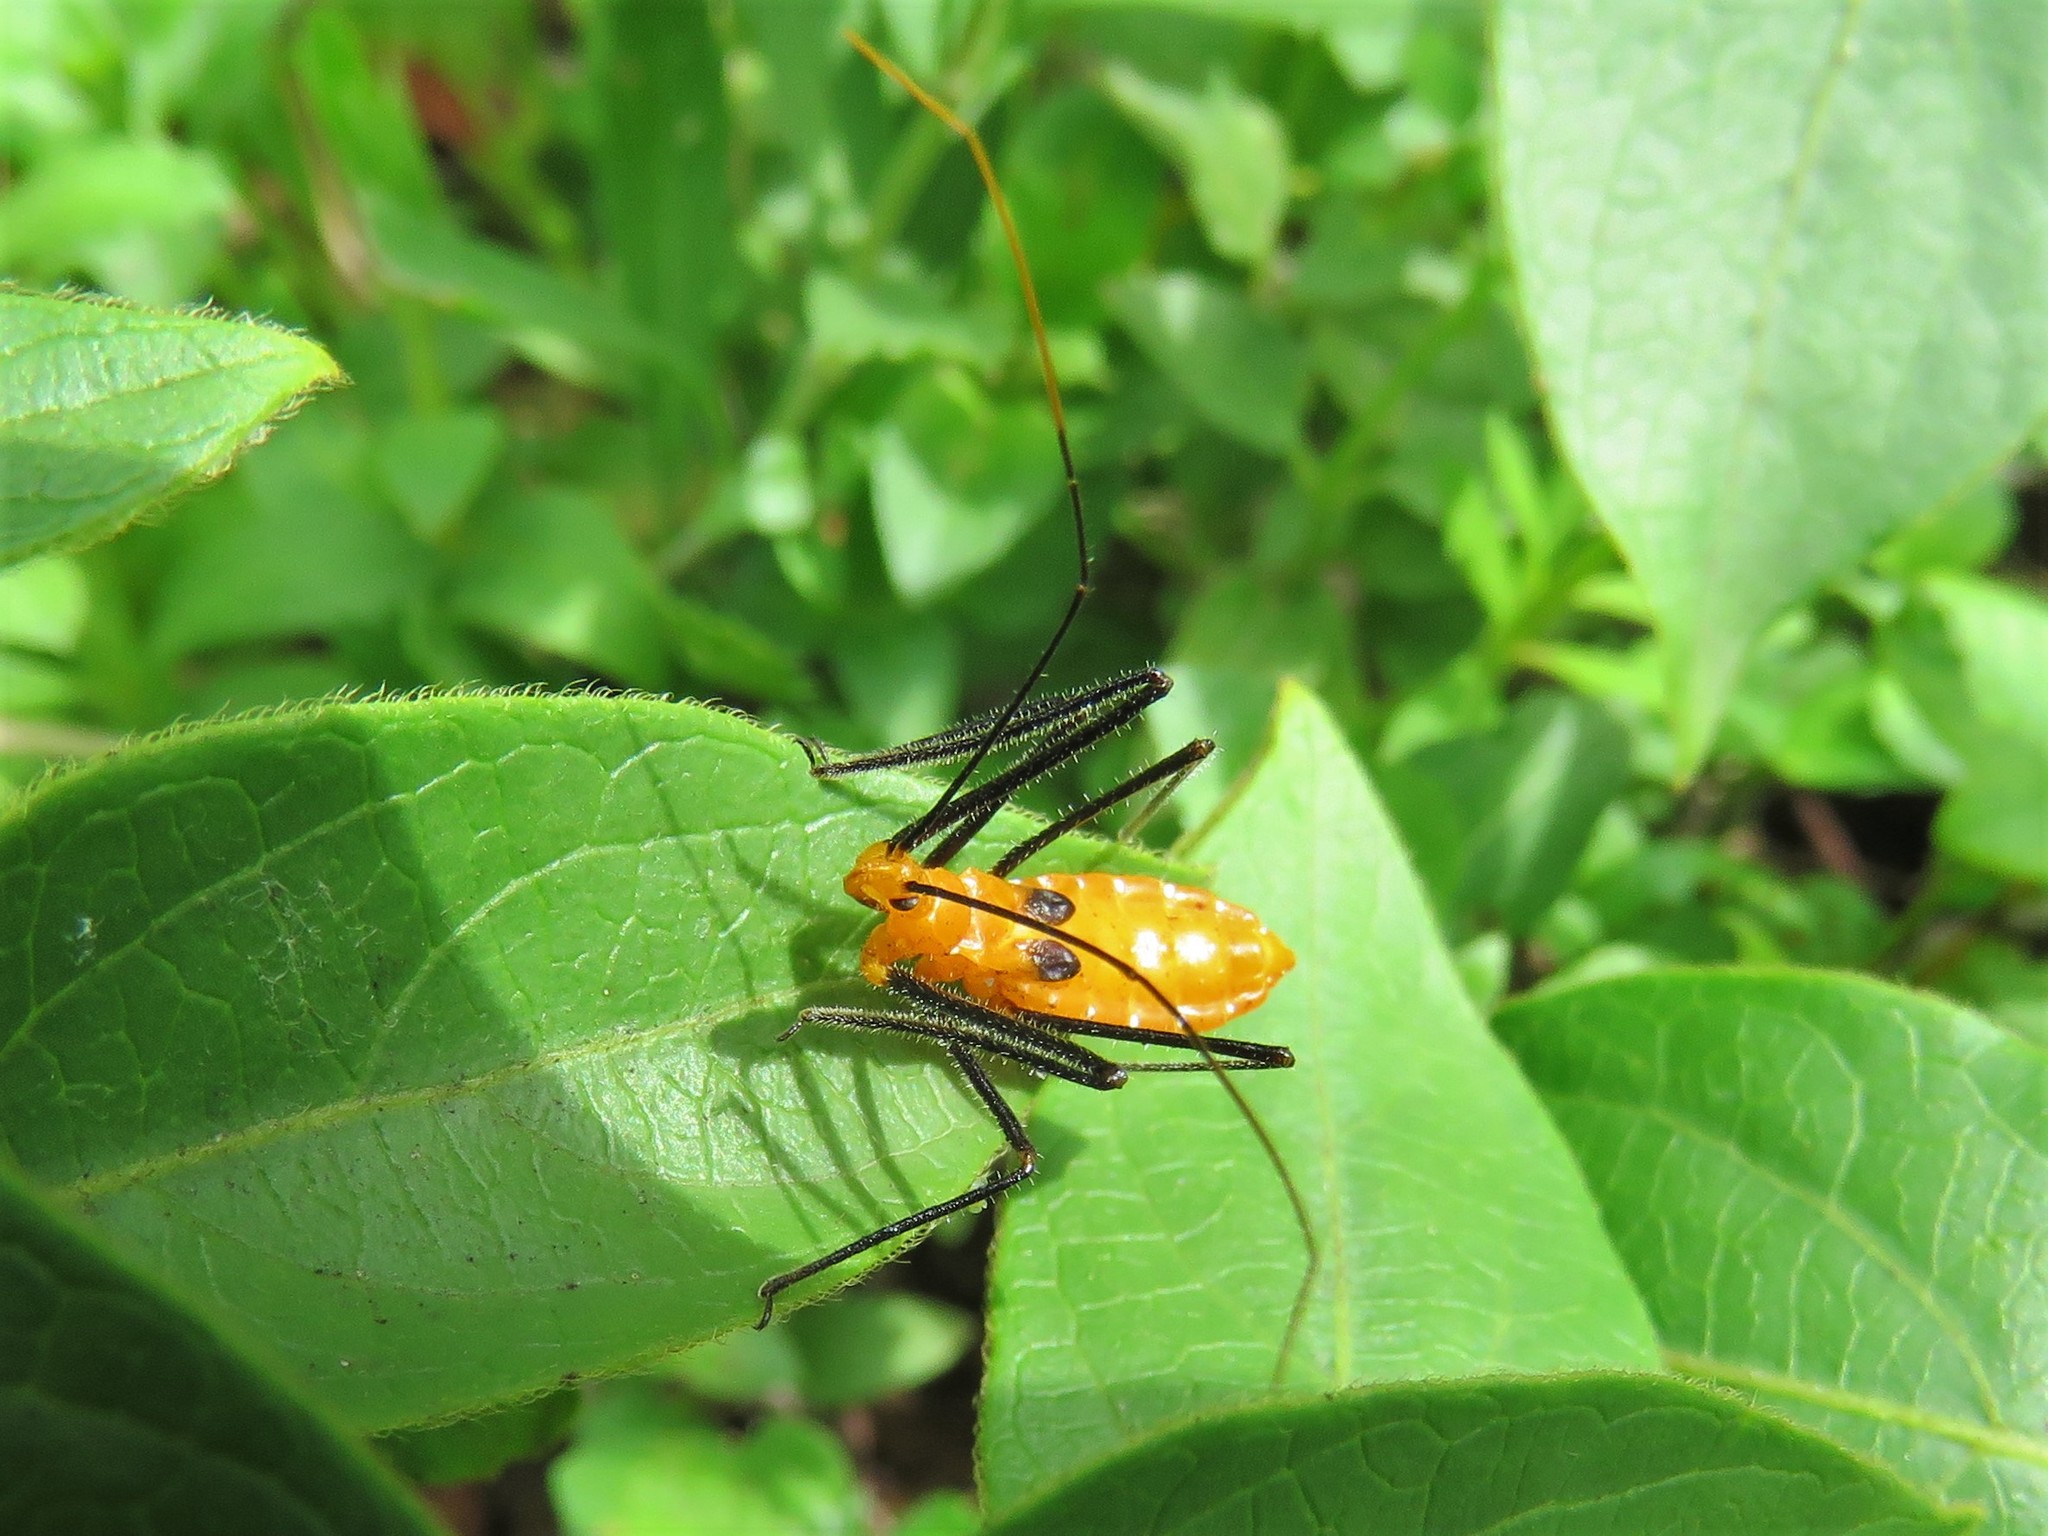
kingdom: Animalia
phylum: Arthropoda
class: Insecta
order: Hemiptera
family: Reduviidae
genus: Zelus
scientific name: Zelus longipes
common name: Milkweed assassin bug
